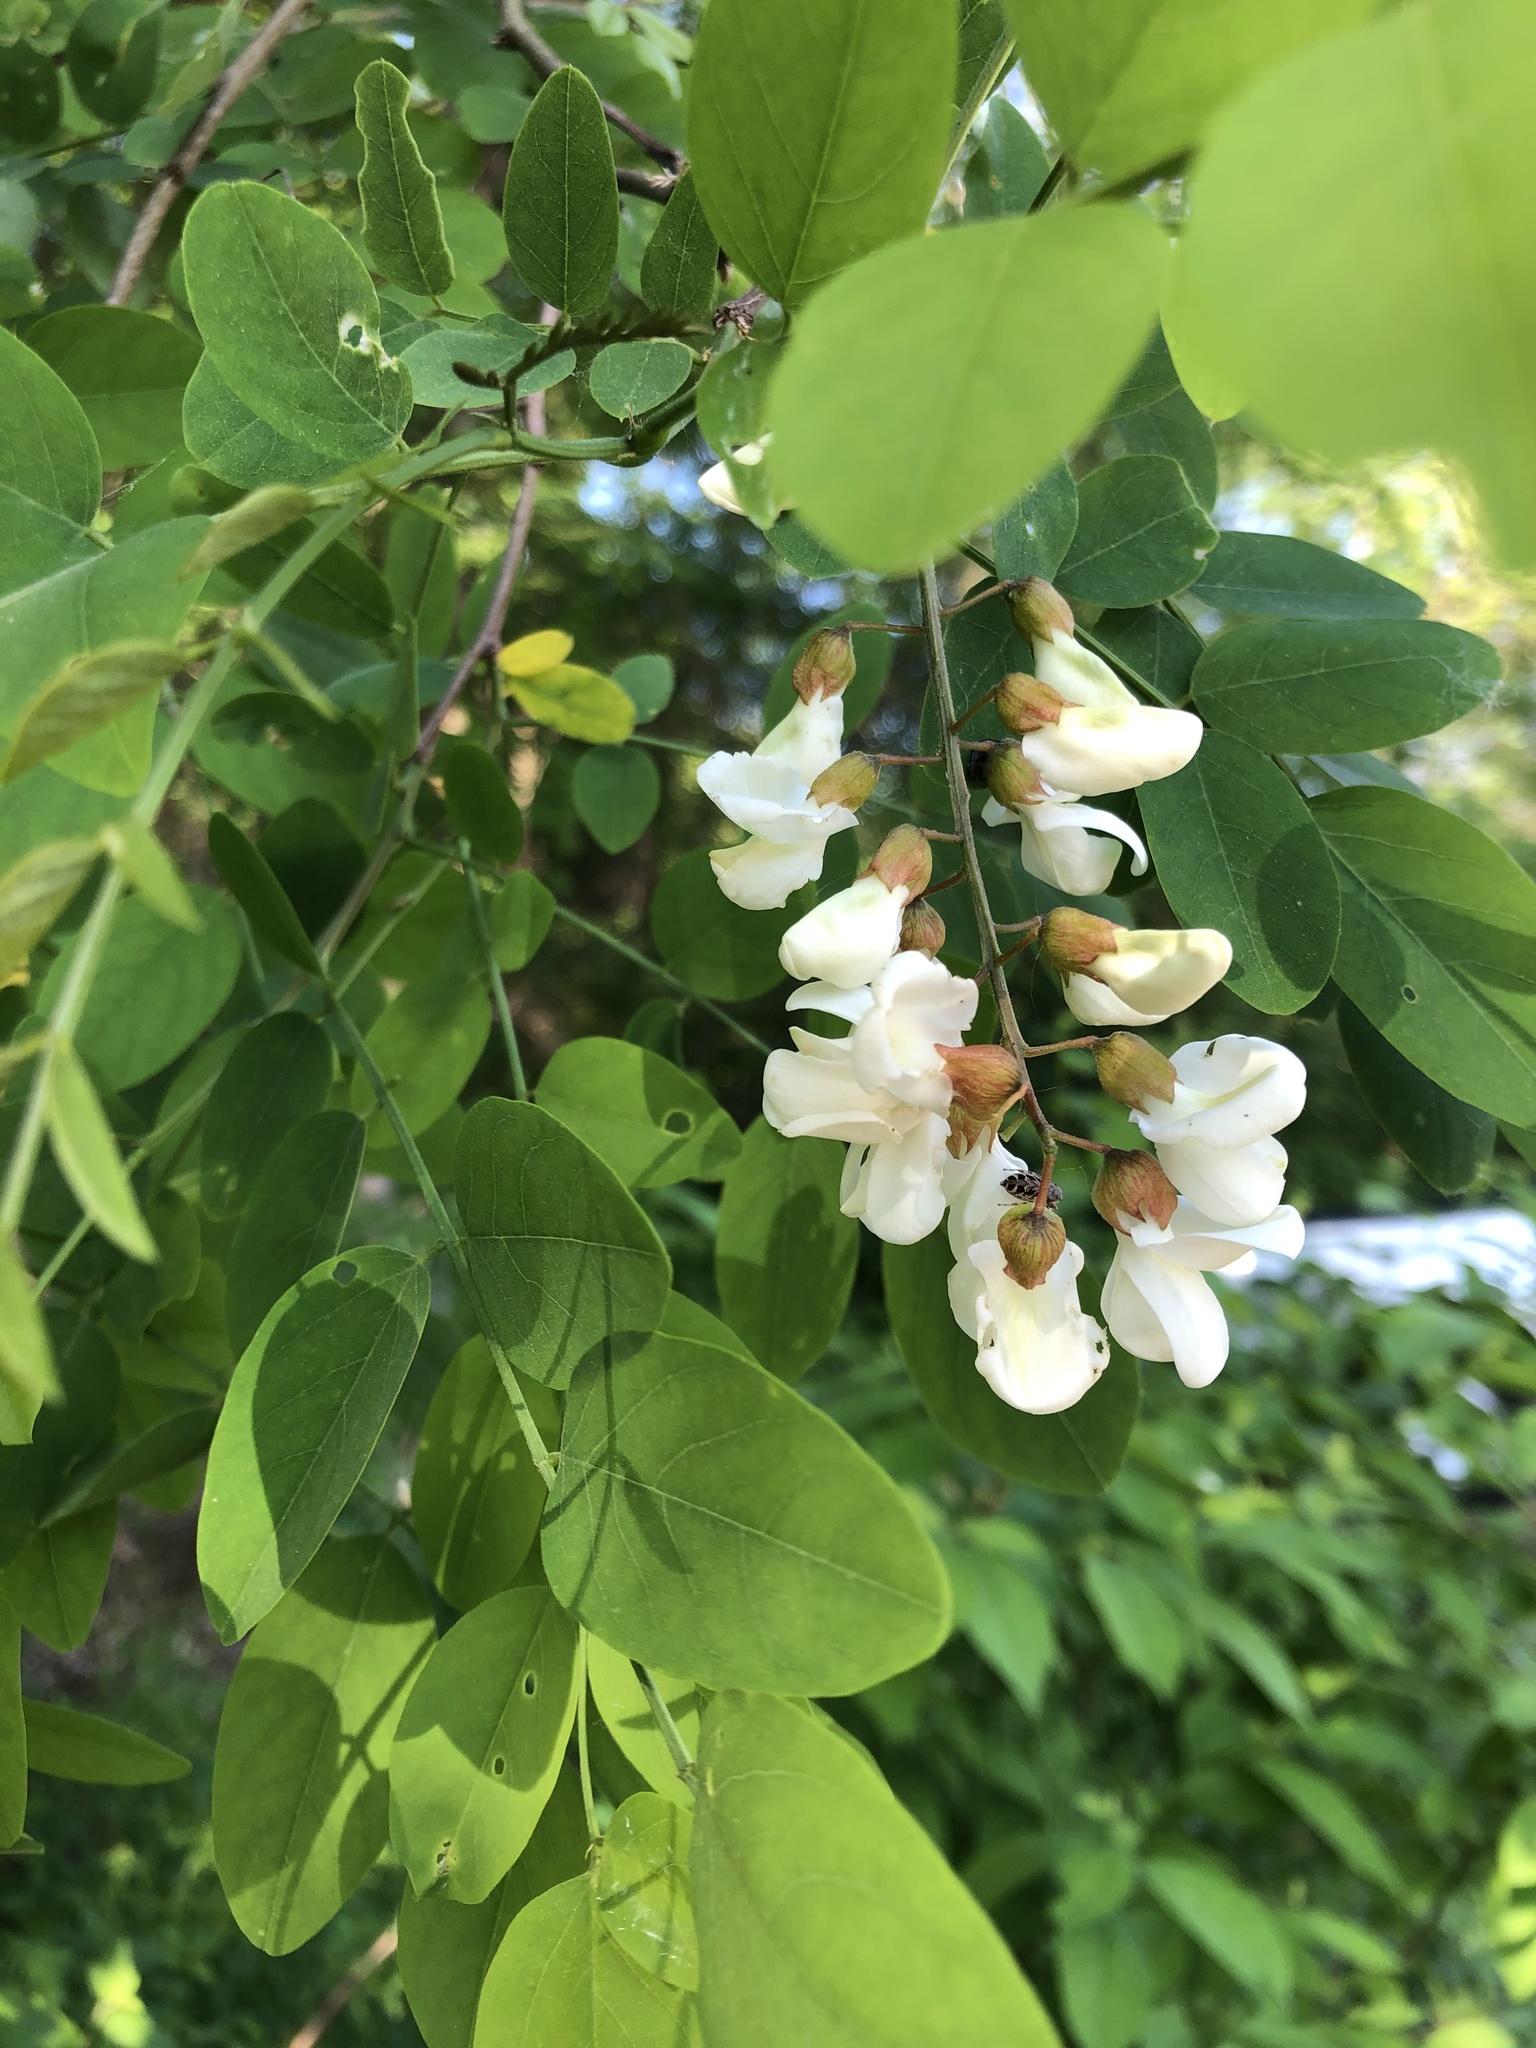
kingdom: Plantae
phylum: Tracheophyta
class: Magnoliopsida
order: Fabales
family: Fabaceae
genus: Robinia
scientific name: Robinia pseudoacacia
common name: Black locust
